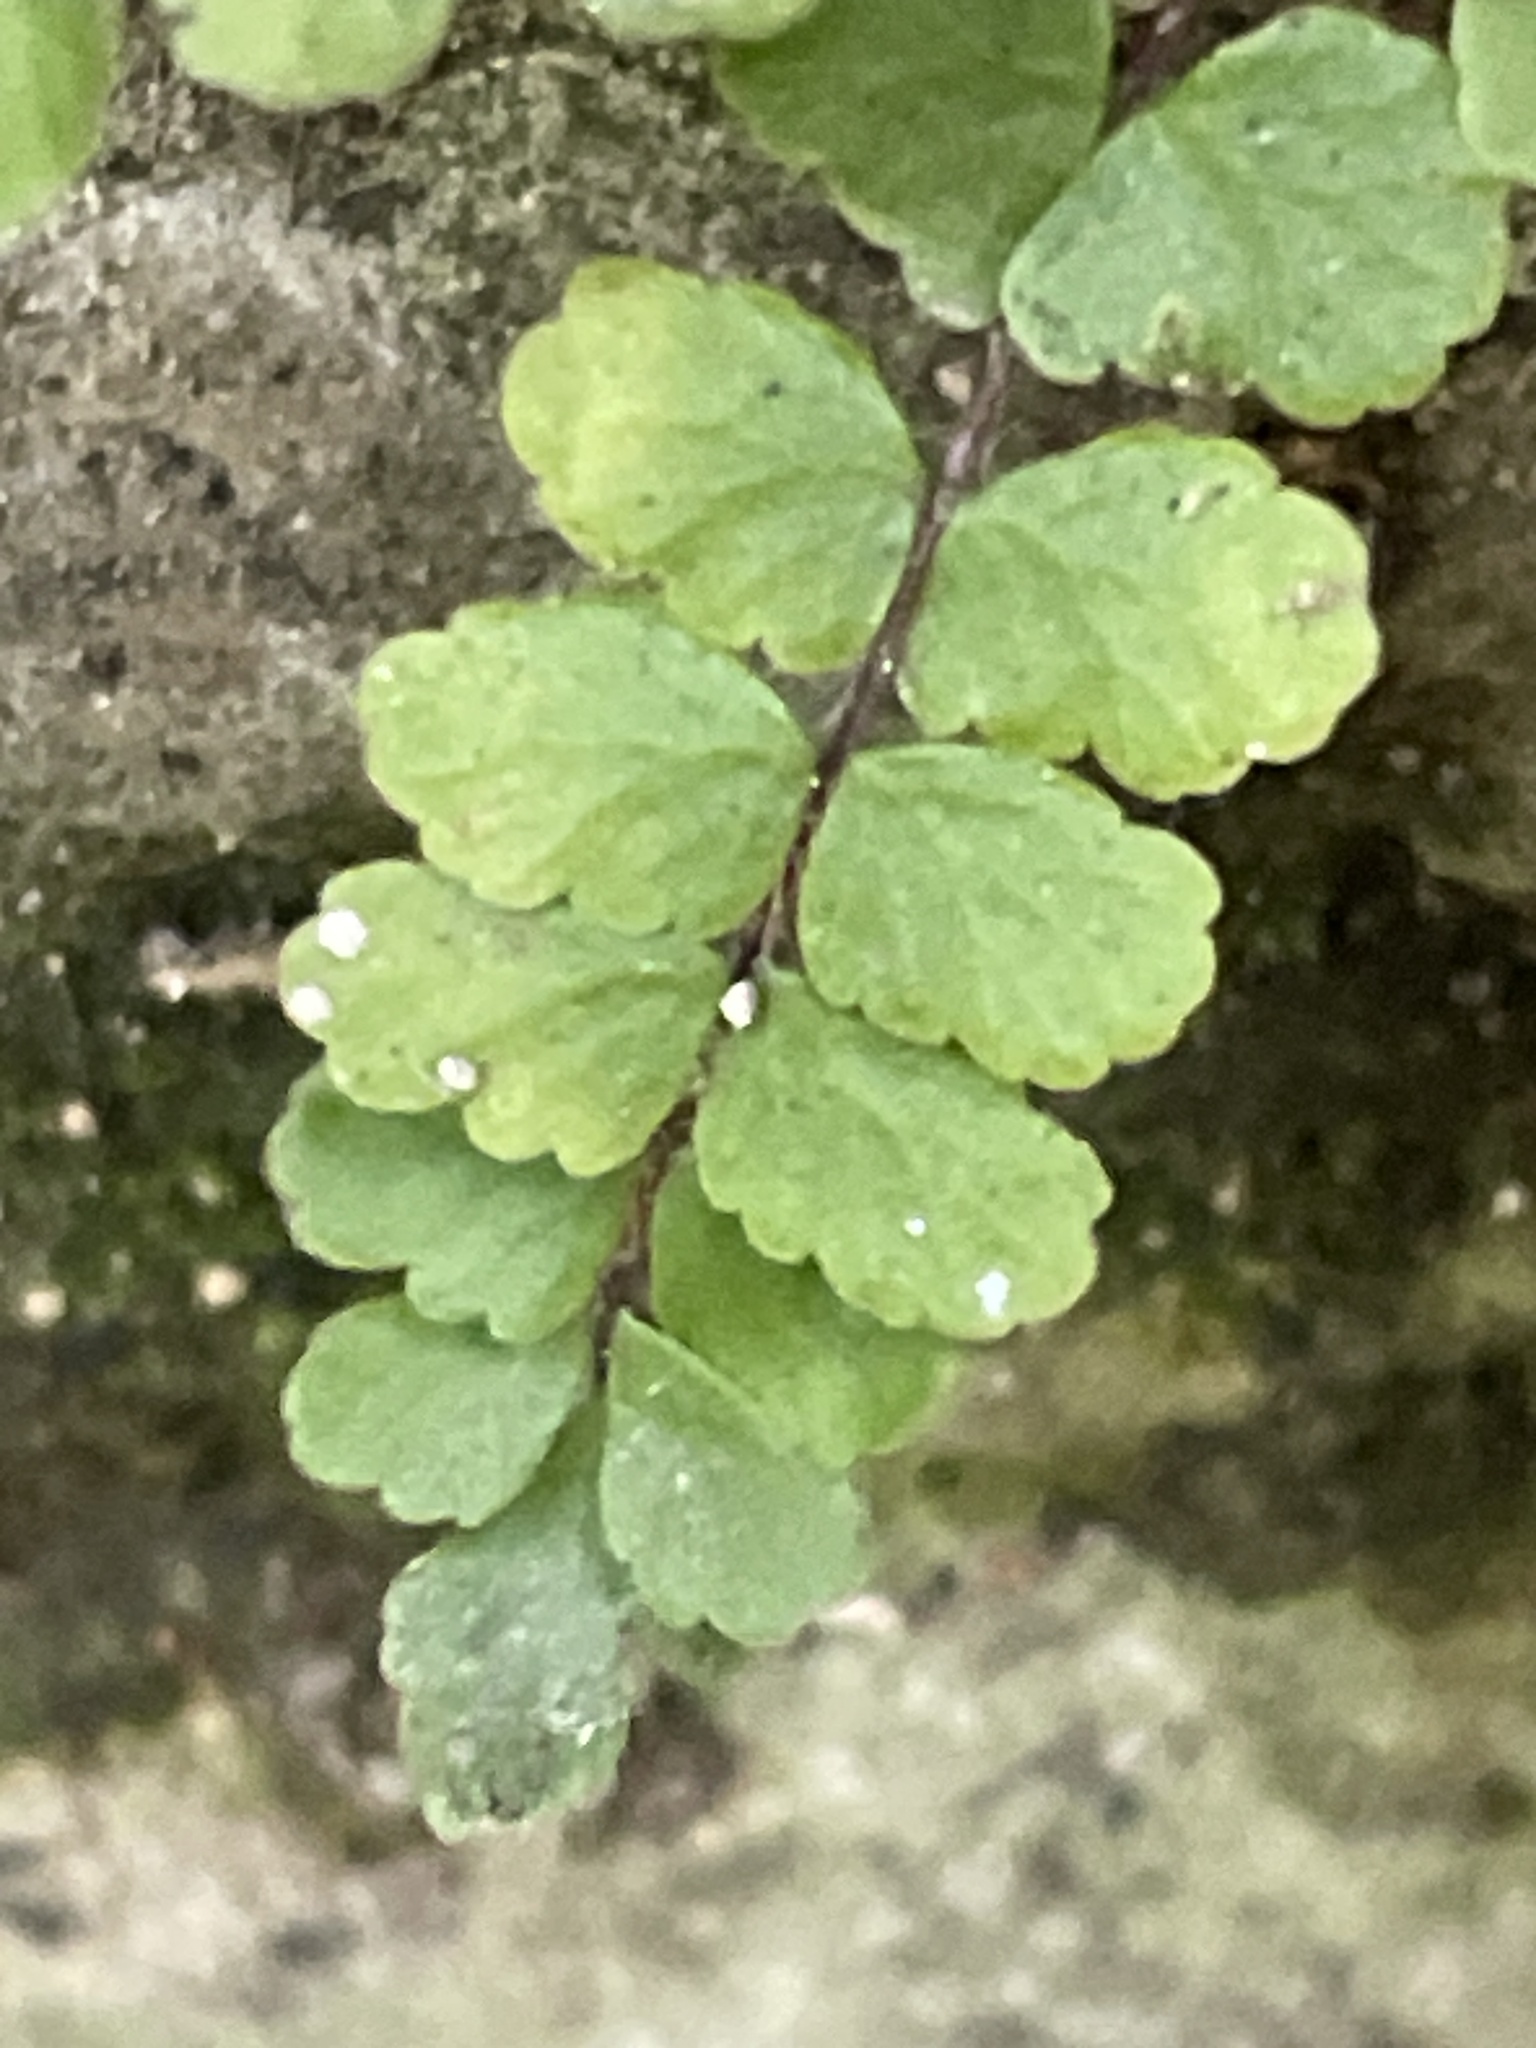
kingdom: Plantae
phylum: Tracheophyta
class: Polypodiopsida
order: Polypodiales
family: Aspleniaceae
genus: Asplenium
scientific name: Asplenium trichomanes
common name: Maidenhair spleenwort
